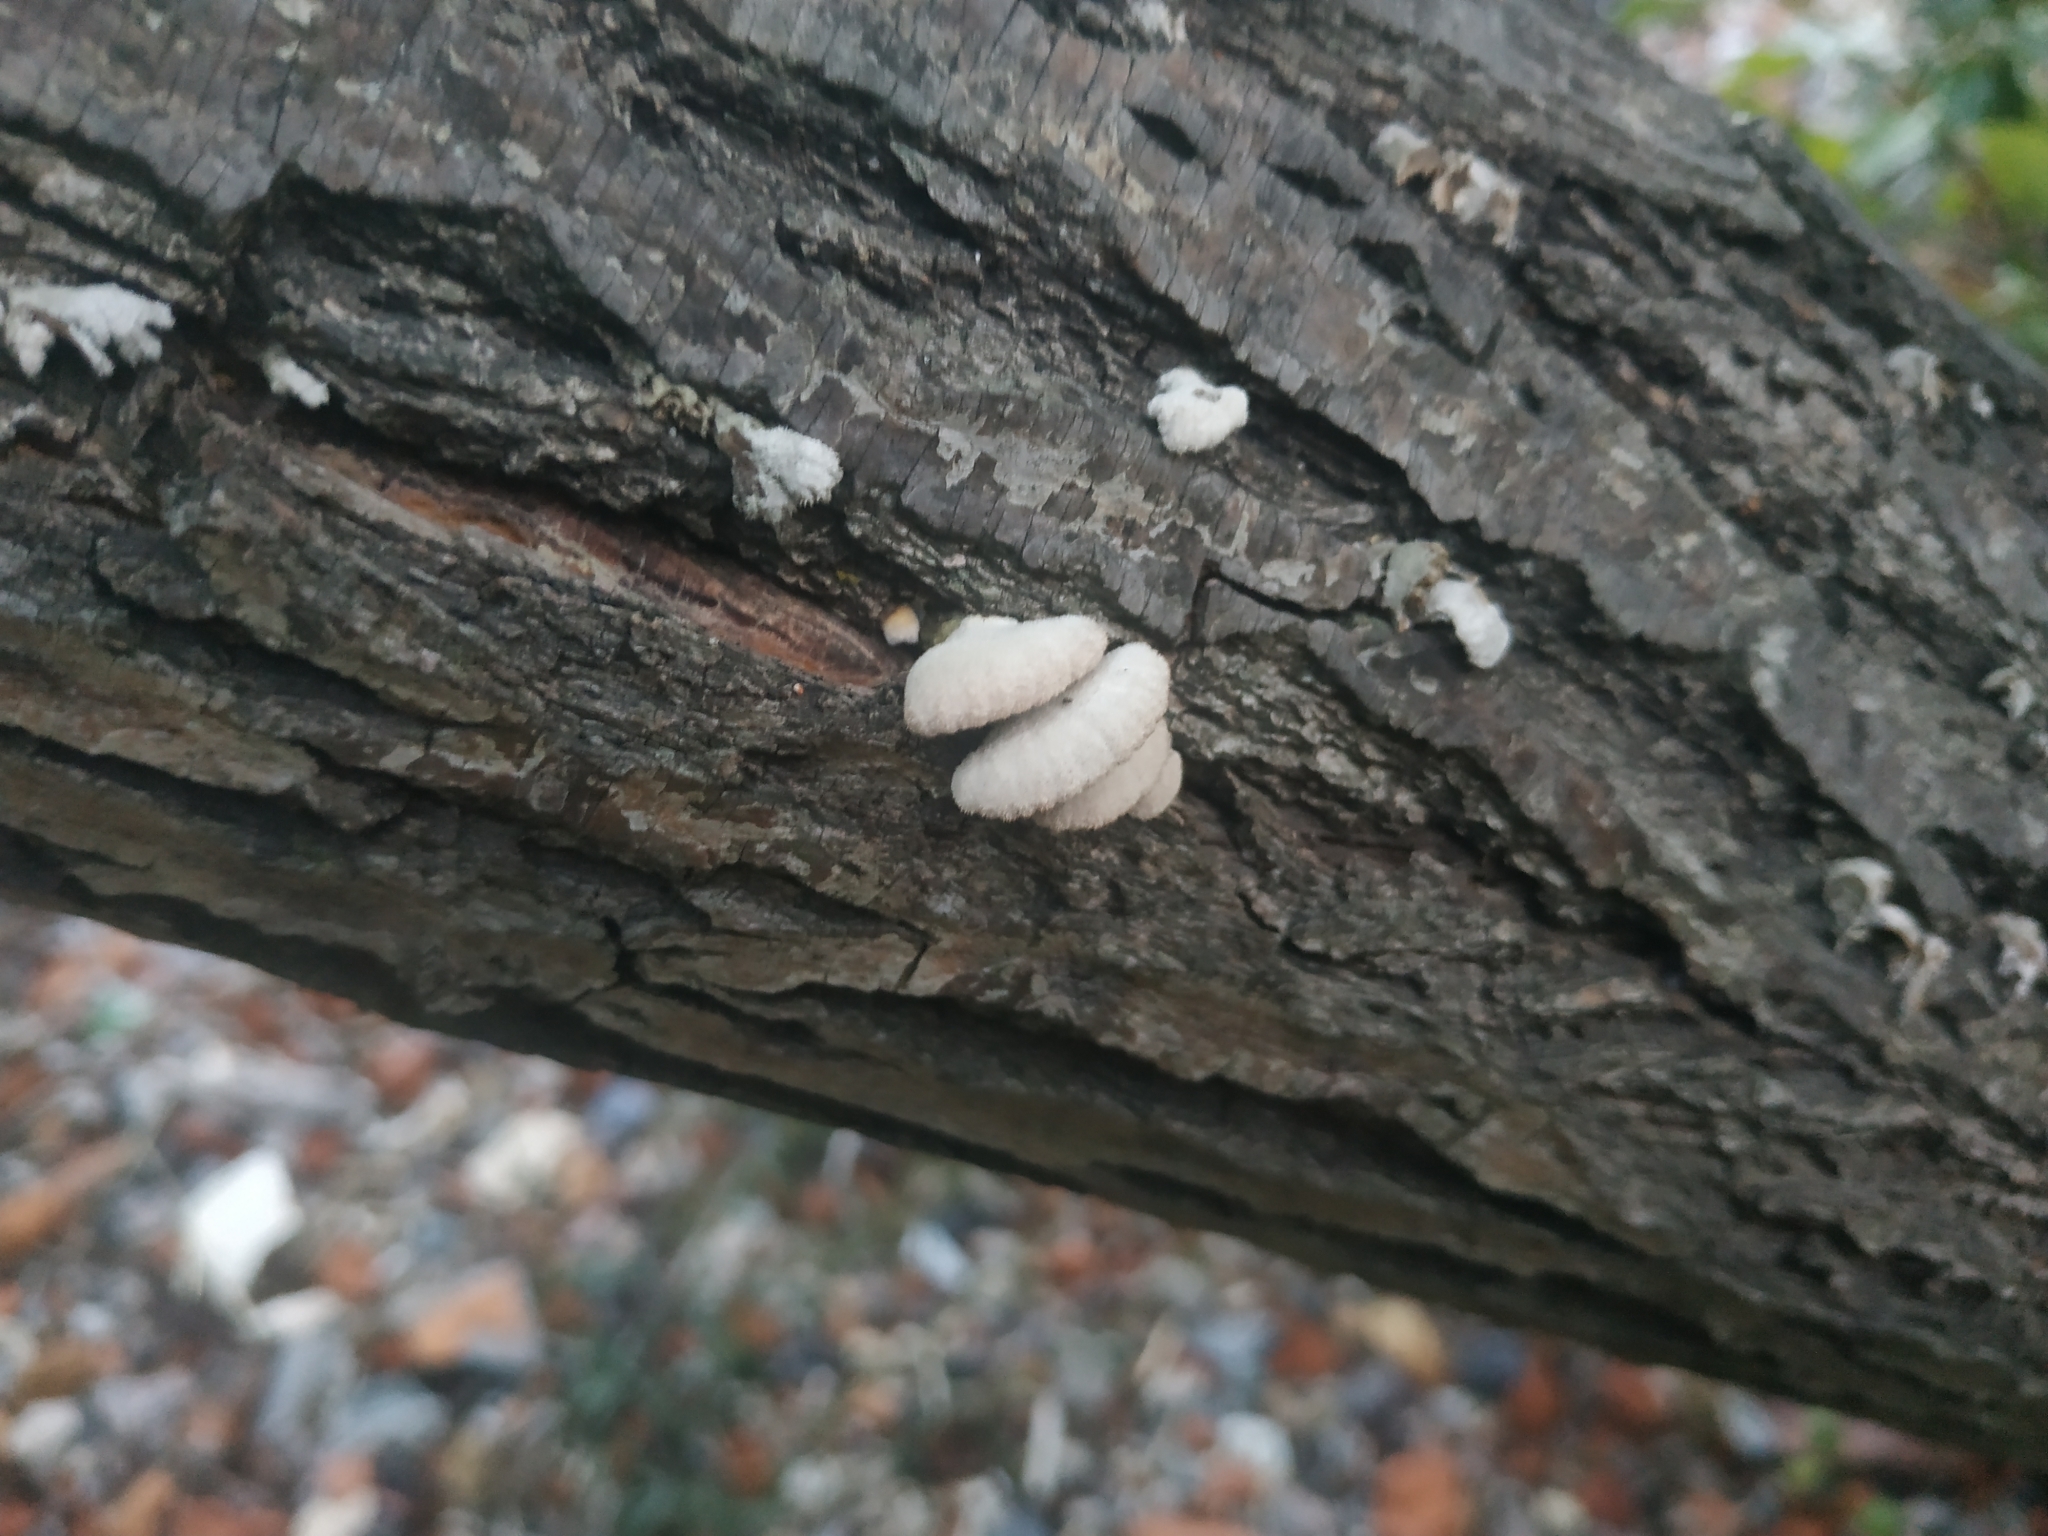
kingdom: Fungi
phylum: Basidiomycota
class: Agaricomycetes
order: Agaricales
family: Schizophyllaceae
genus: Schizophyllum
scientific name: Schizophyllum commune
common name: Common porecrust
